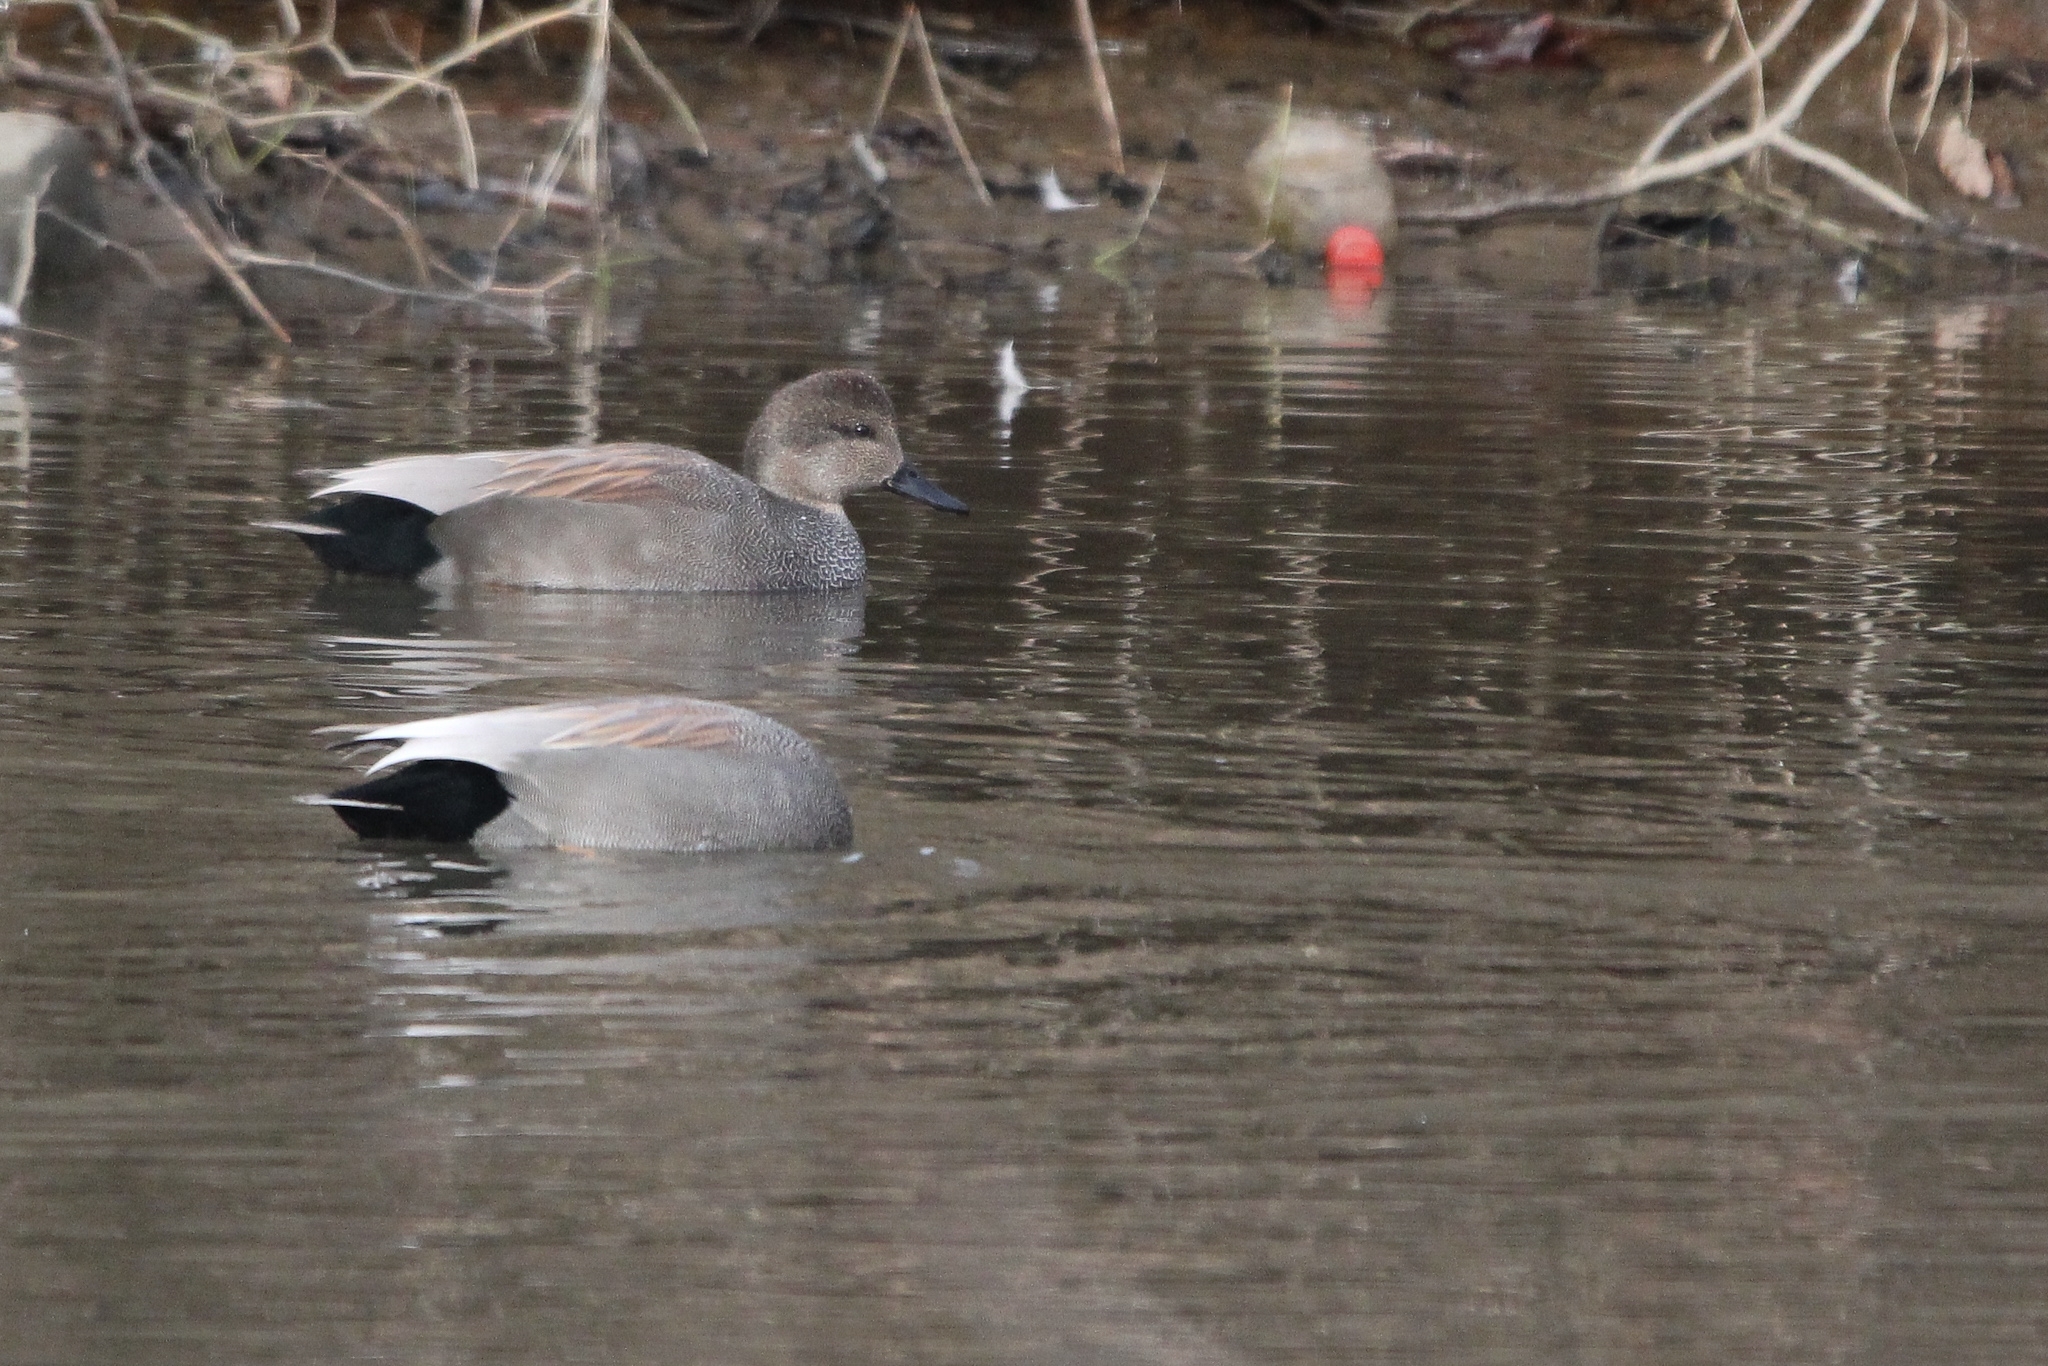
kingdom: Animalia
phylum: Chordata
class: Aves
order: Anseriformes
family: Anatidae
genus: Mareca
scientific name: Mareca strepera
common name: Gadwall
